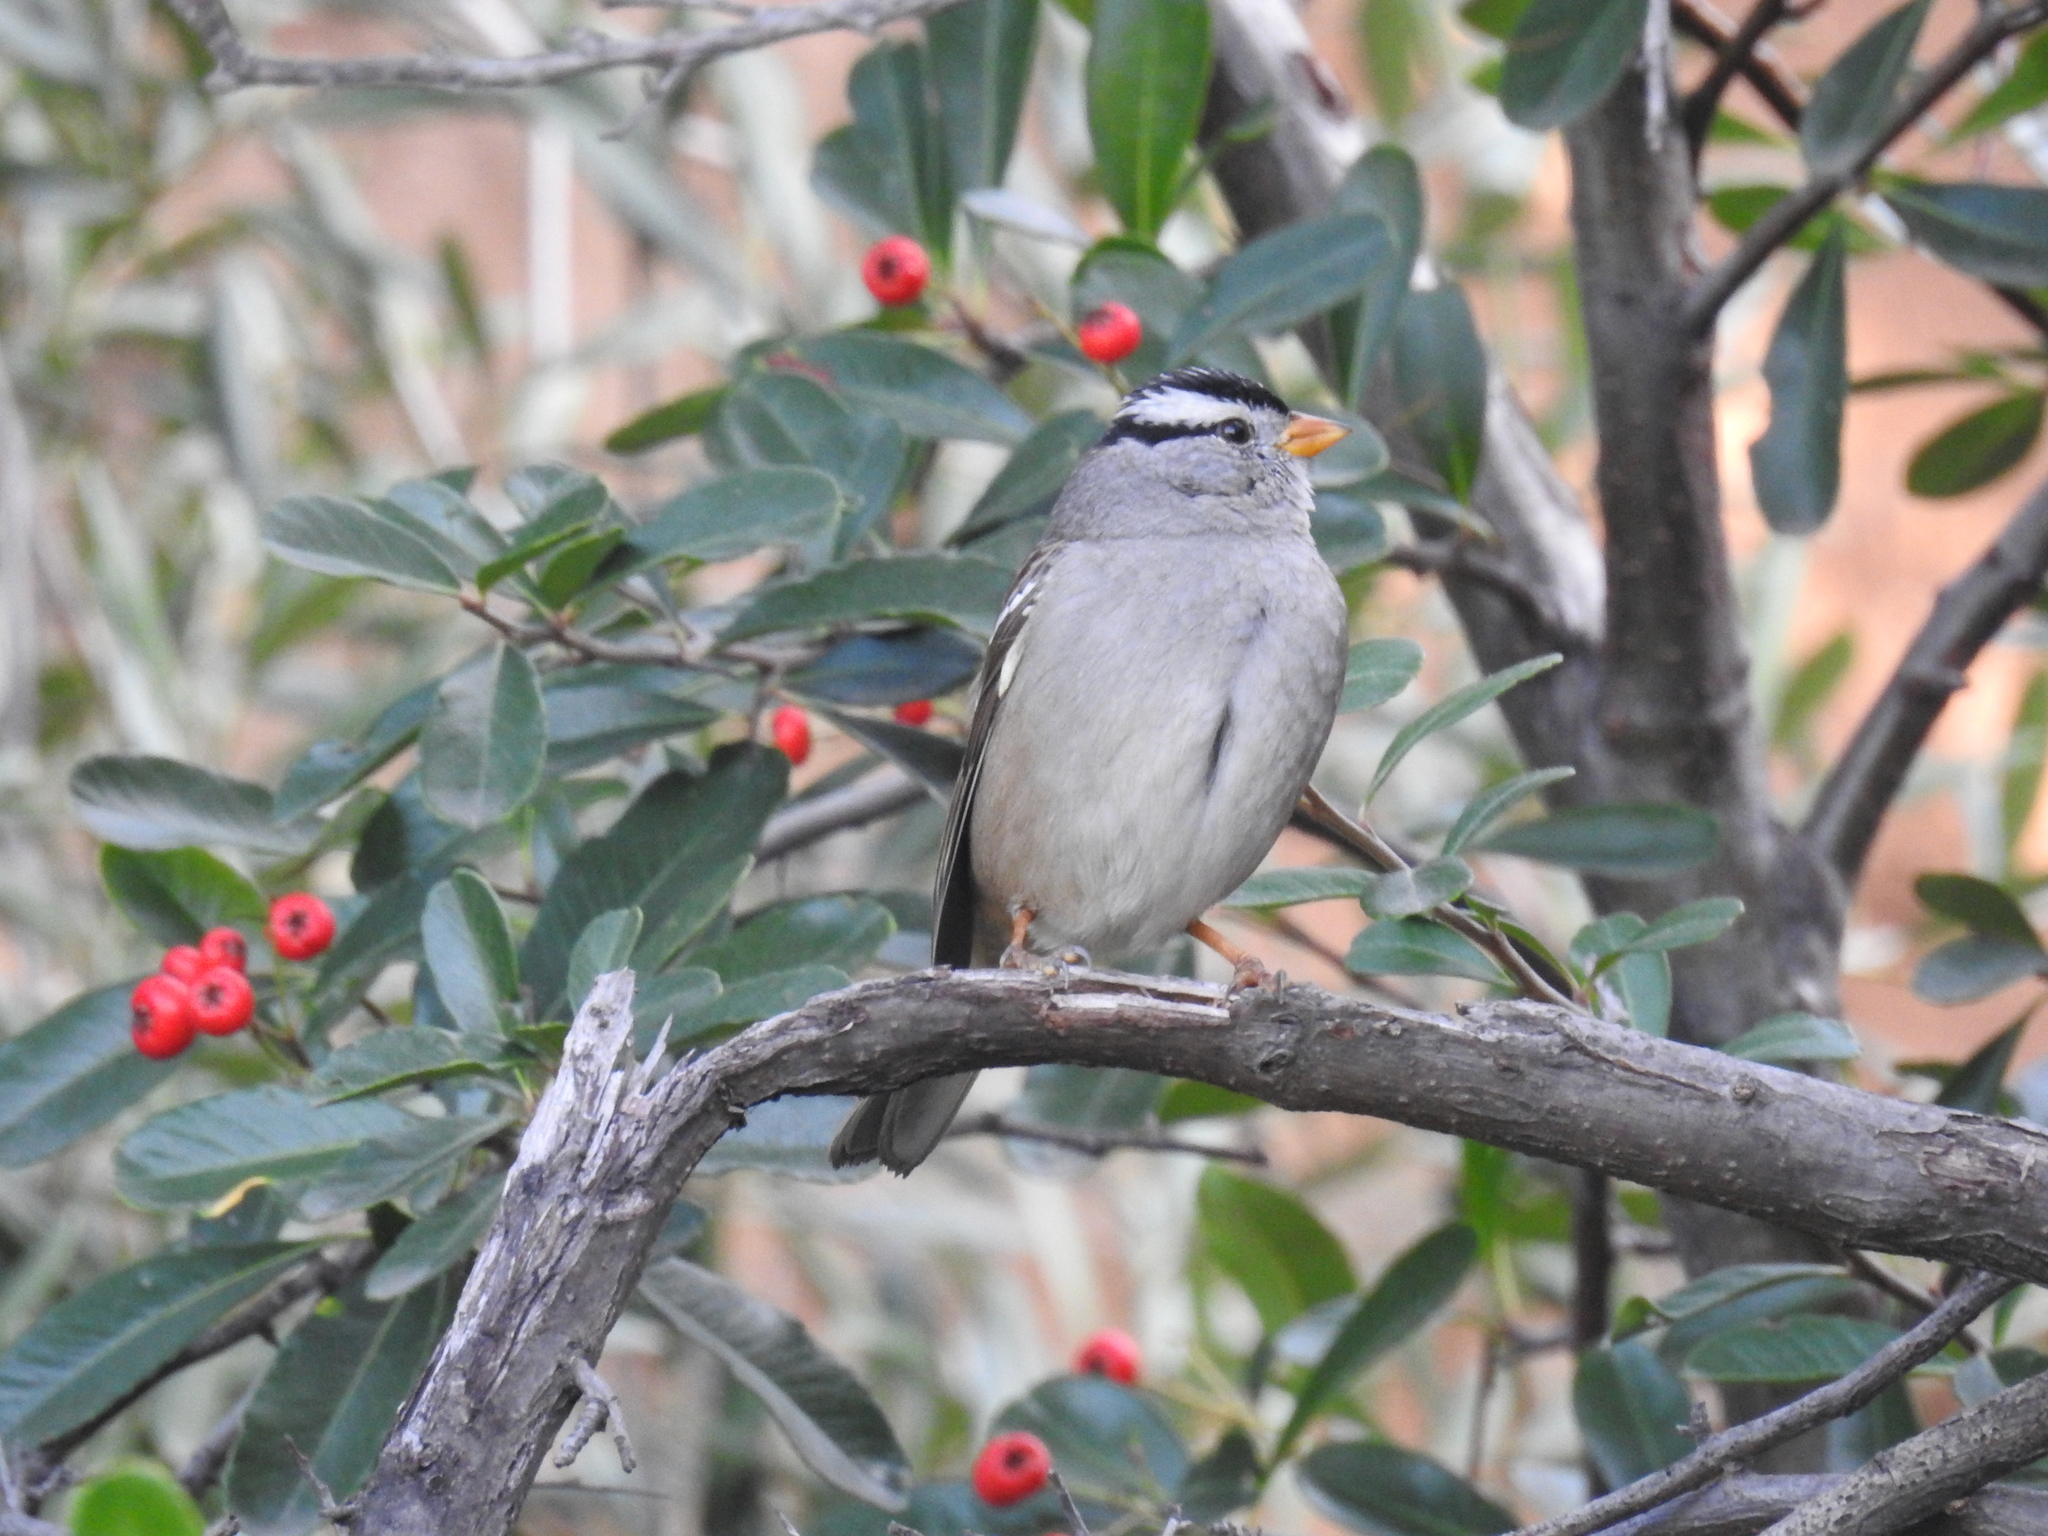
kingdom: Animalia
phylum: Chordata
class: Aves
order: Passeriformes
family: Passerellidae
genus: Zonotrichia
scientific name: Zonotrichia leucophrys
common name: White-crowned sparrow
